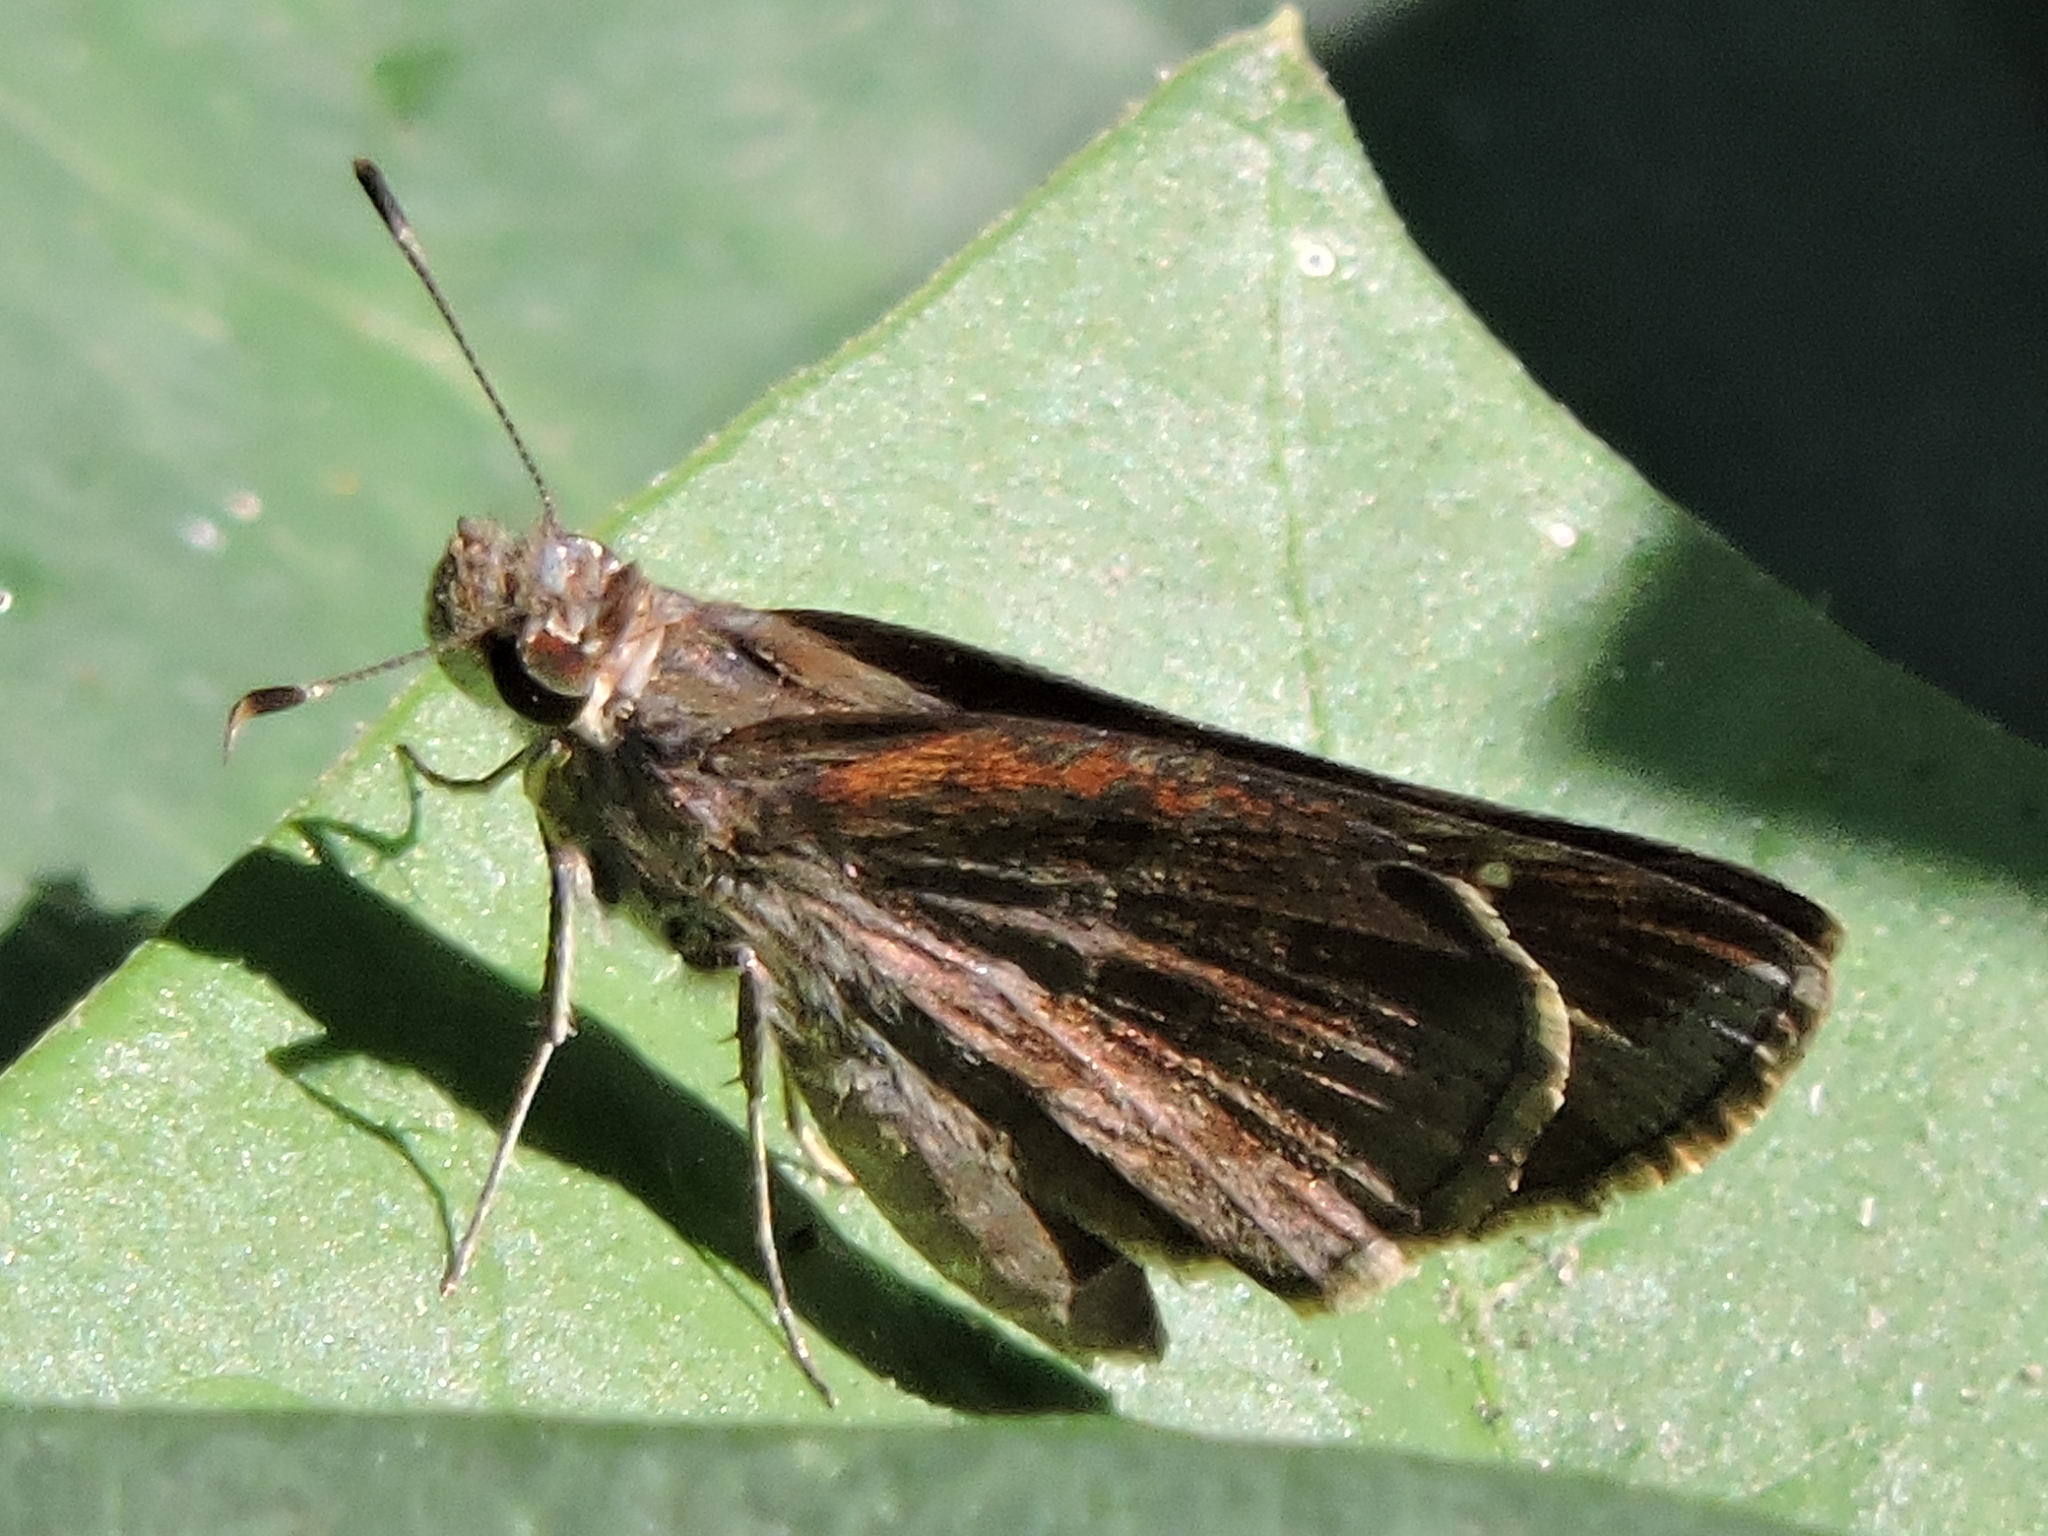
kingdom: Animalia
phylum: Arthropoda
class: Insecta
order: Lepidoptera
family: Hesperiidae
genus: Lerema
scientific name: Lerema accius
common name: Clouded skipper
